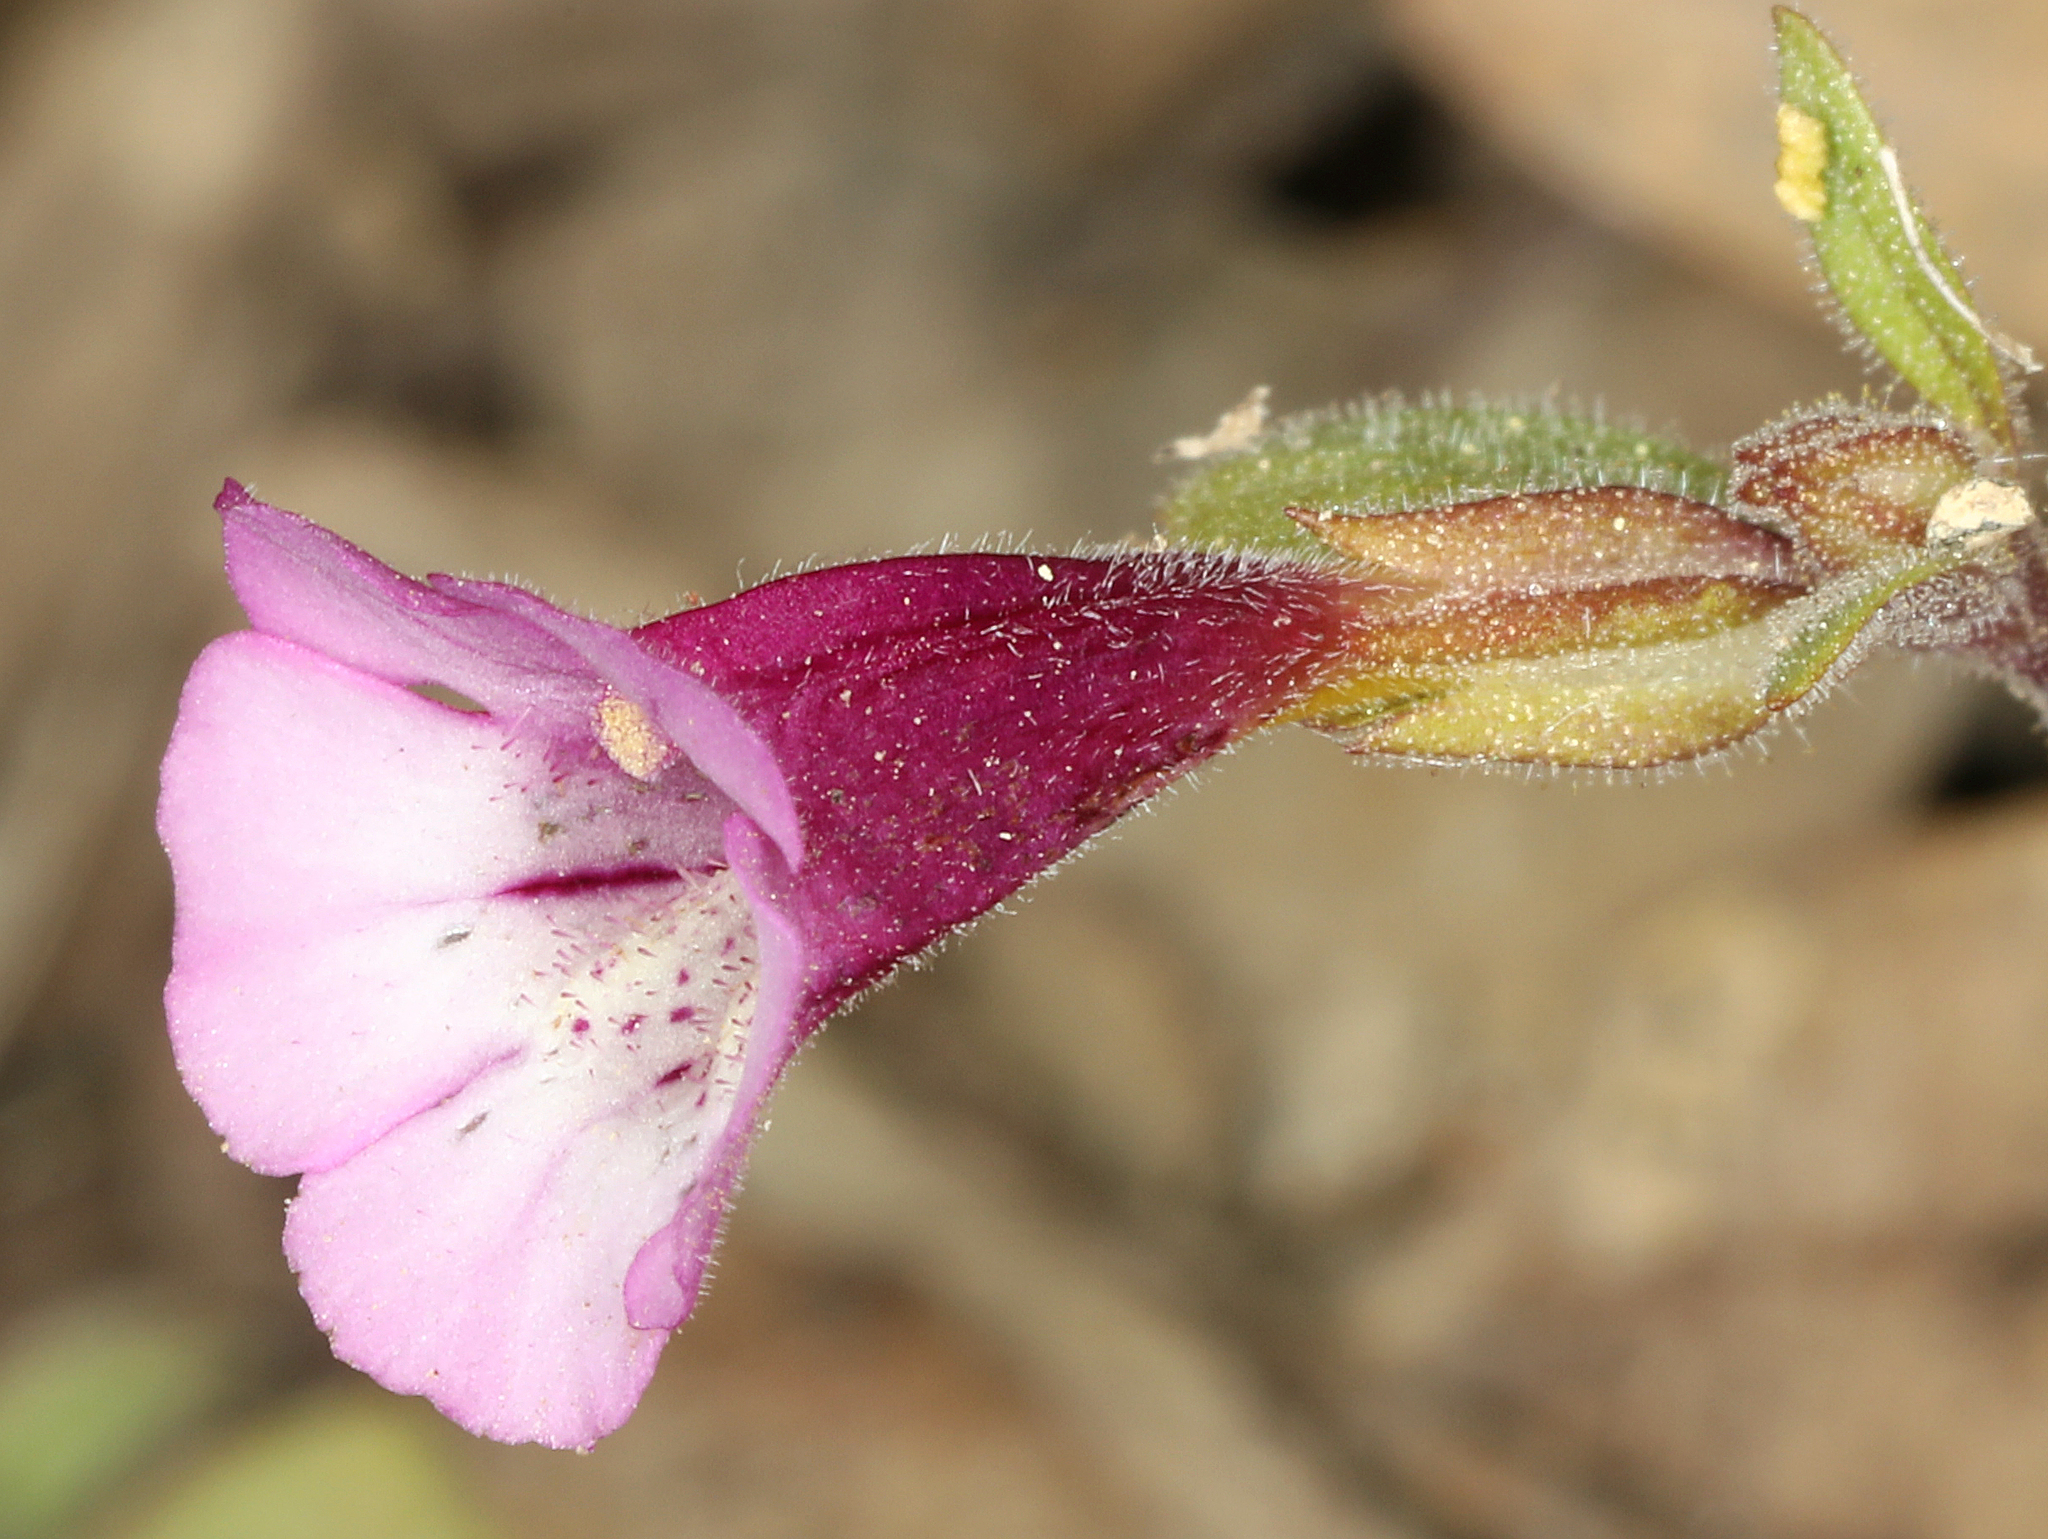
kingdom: Plantae
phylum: Tracheophyta
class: Magnoliopsida
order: Lamiales
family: Phrymaceae
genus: Diplacus
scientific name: Diplacus layneae
